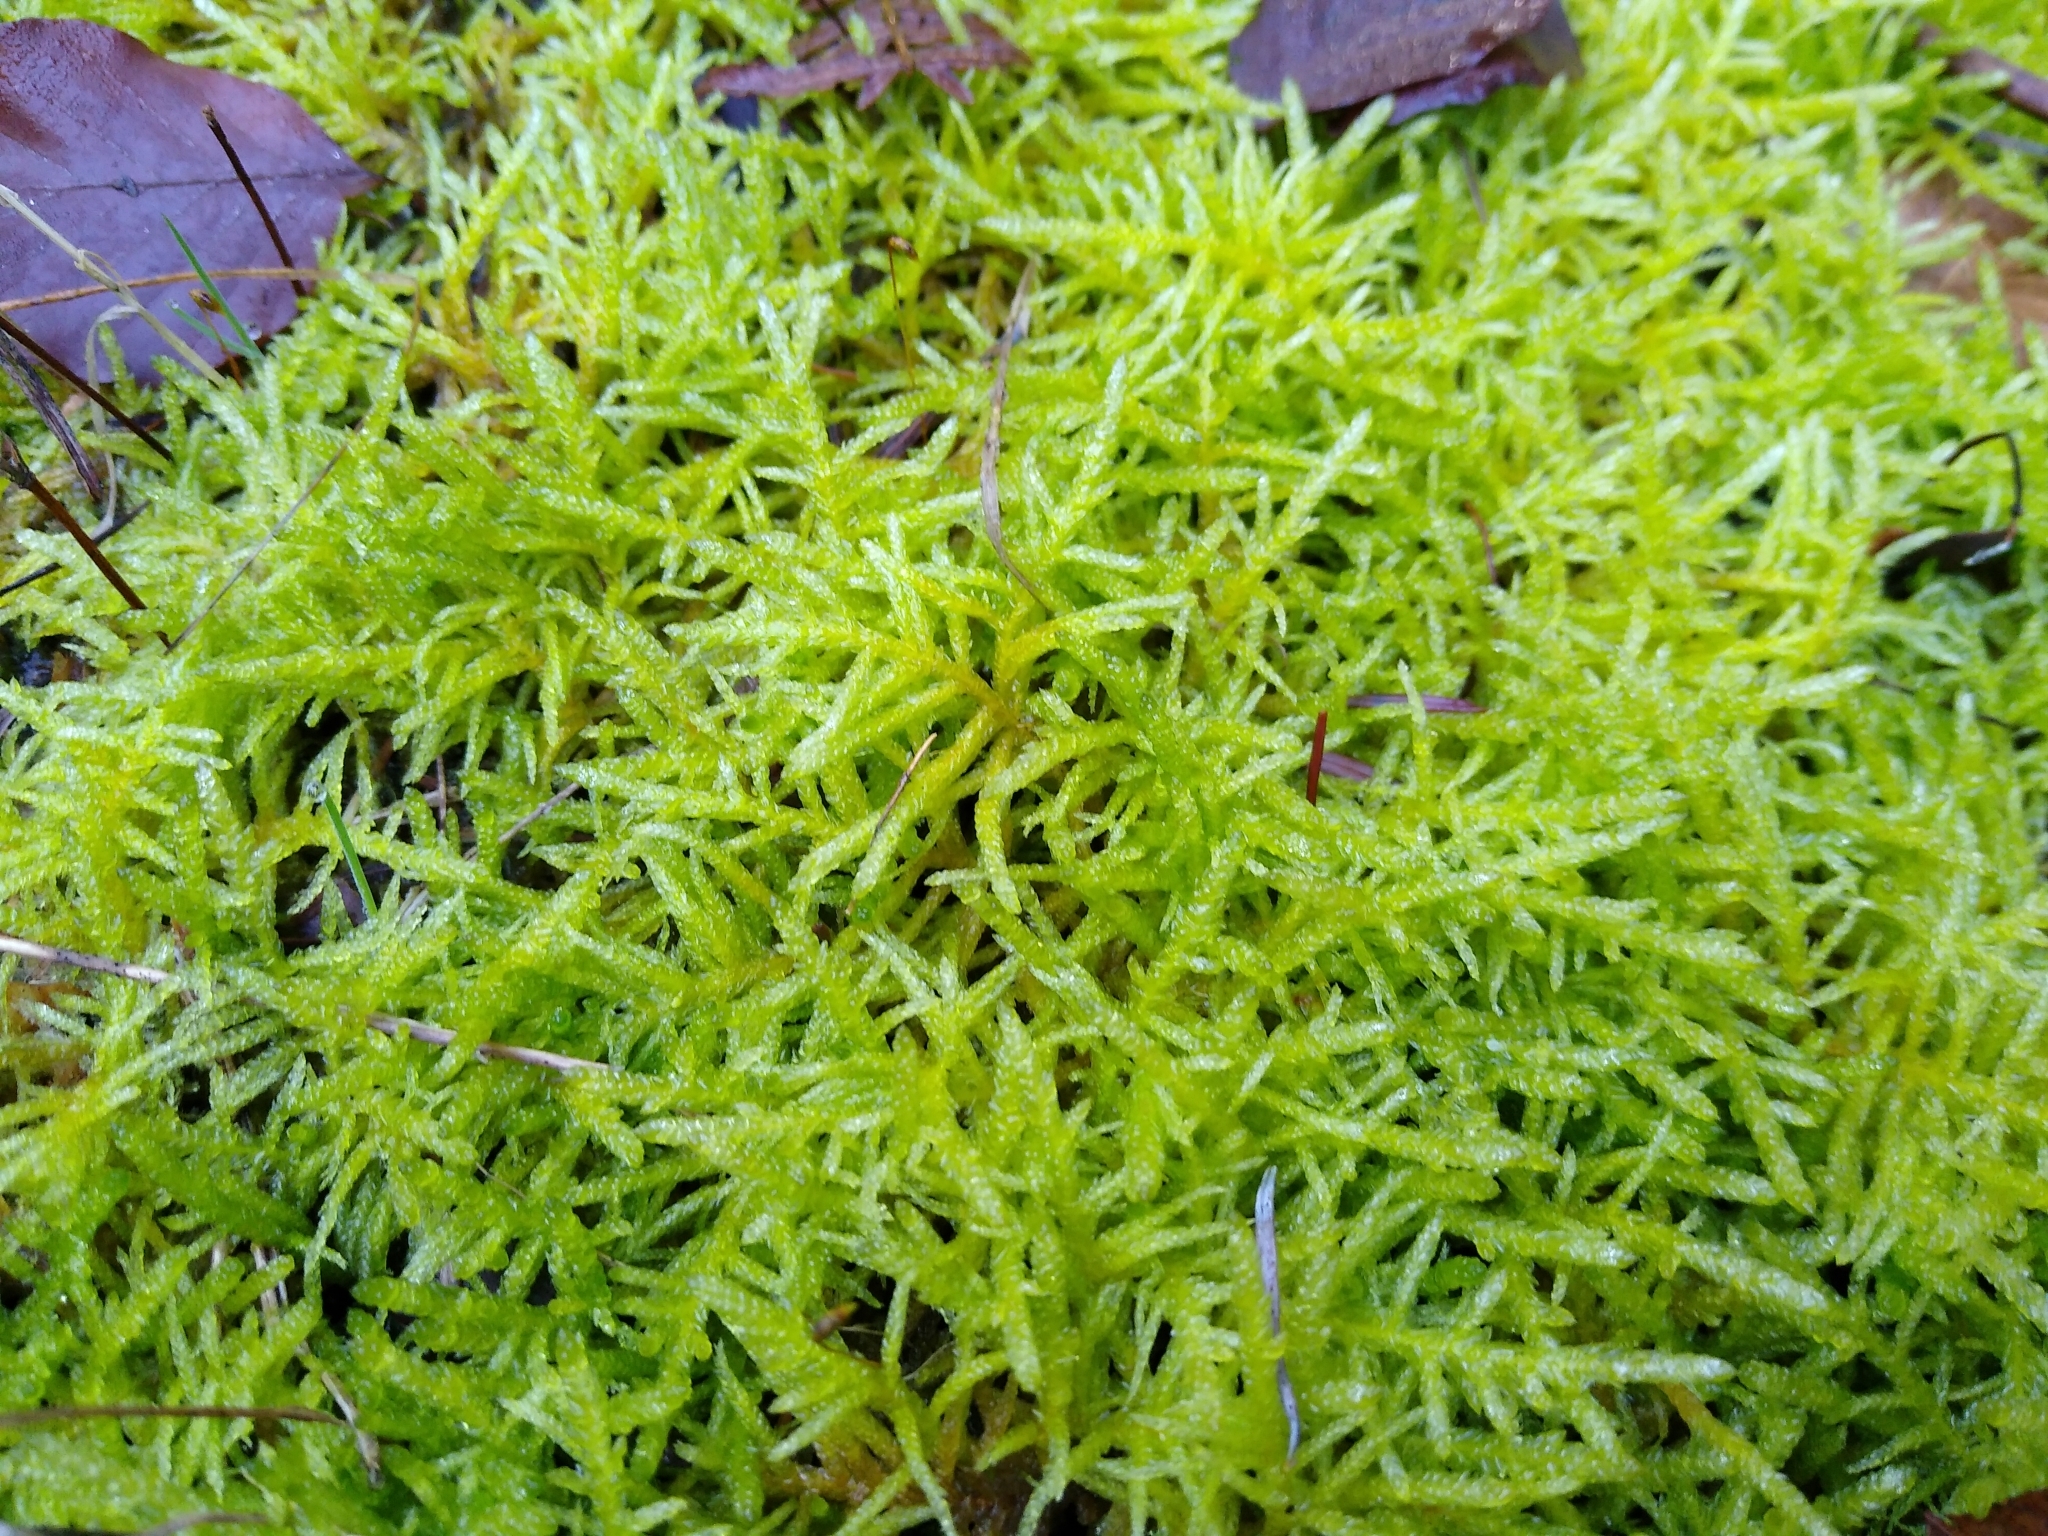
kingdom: Plantae
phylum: Bryophyta
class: Bryopsida
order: Hypnales
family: Brachytheciaceae
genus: Pseudoscleropodium
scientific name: Pseudoscleropodium purum
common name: Neat feather-moss
